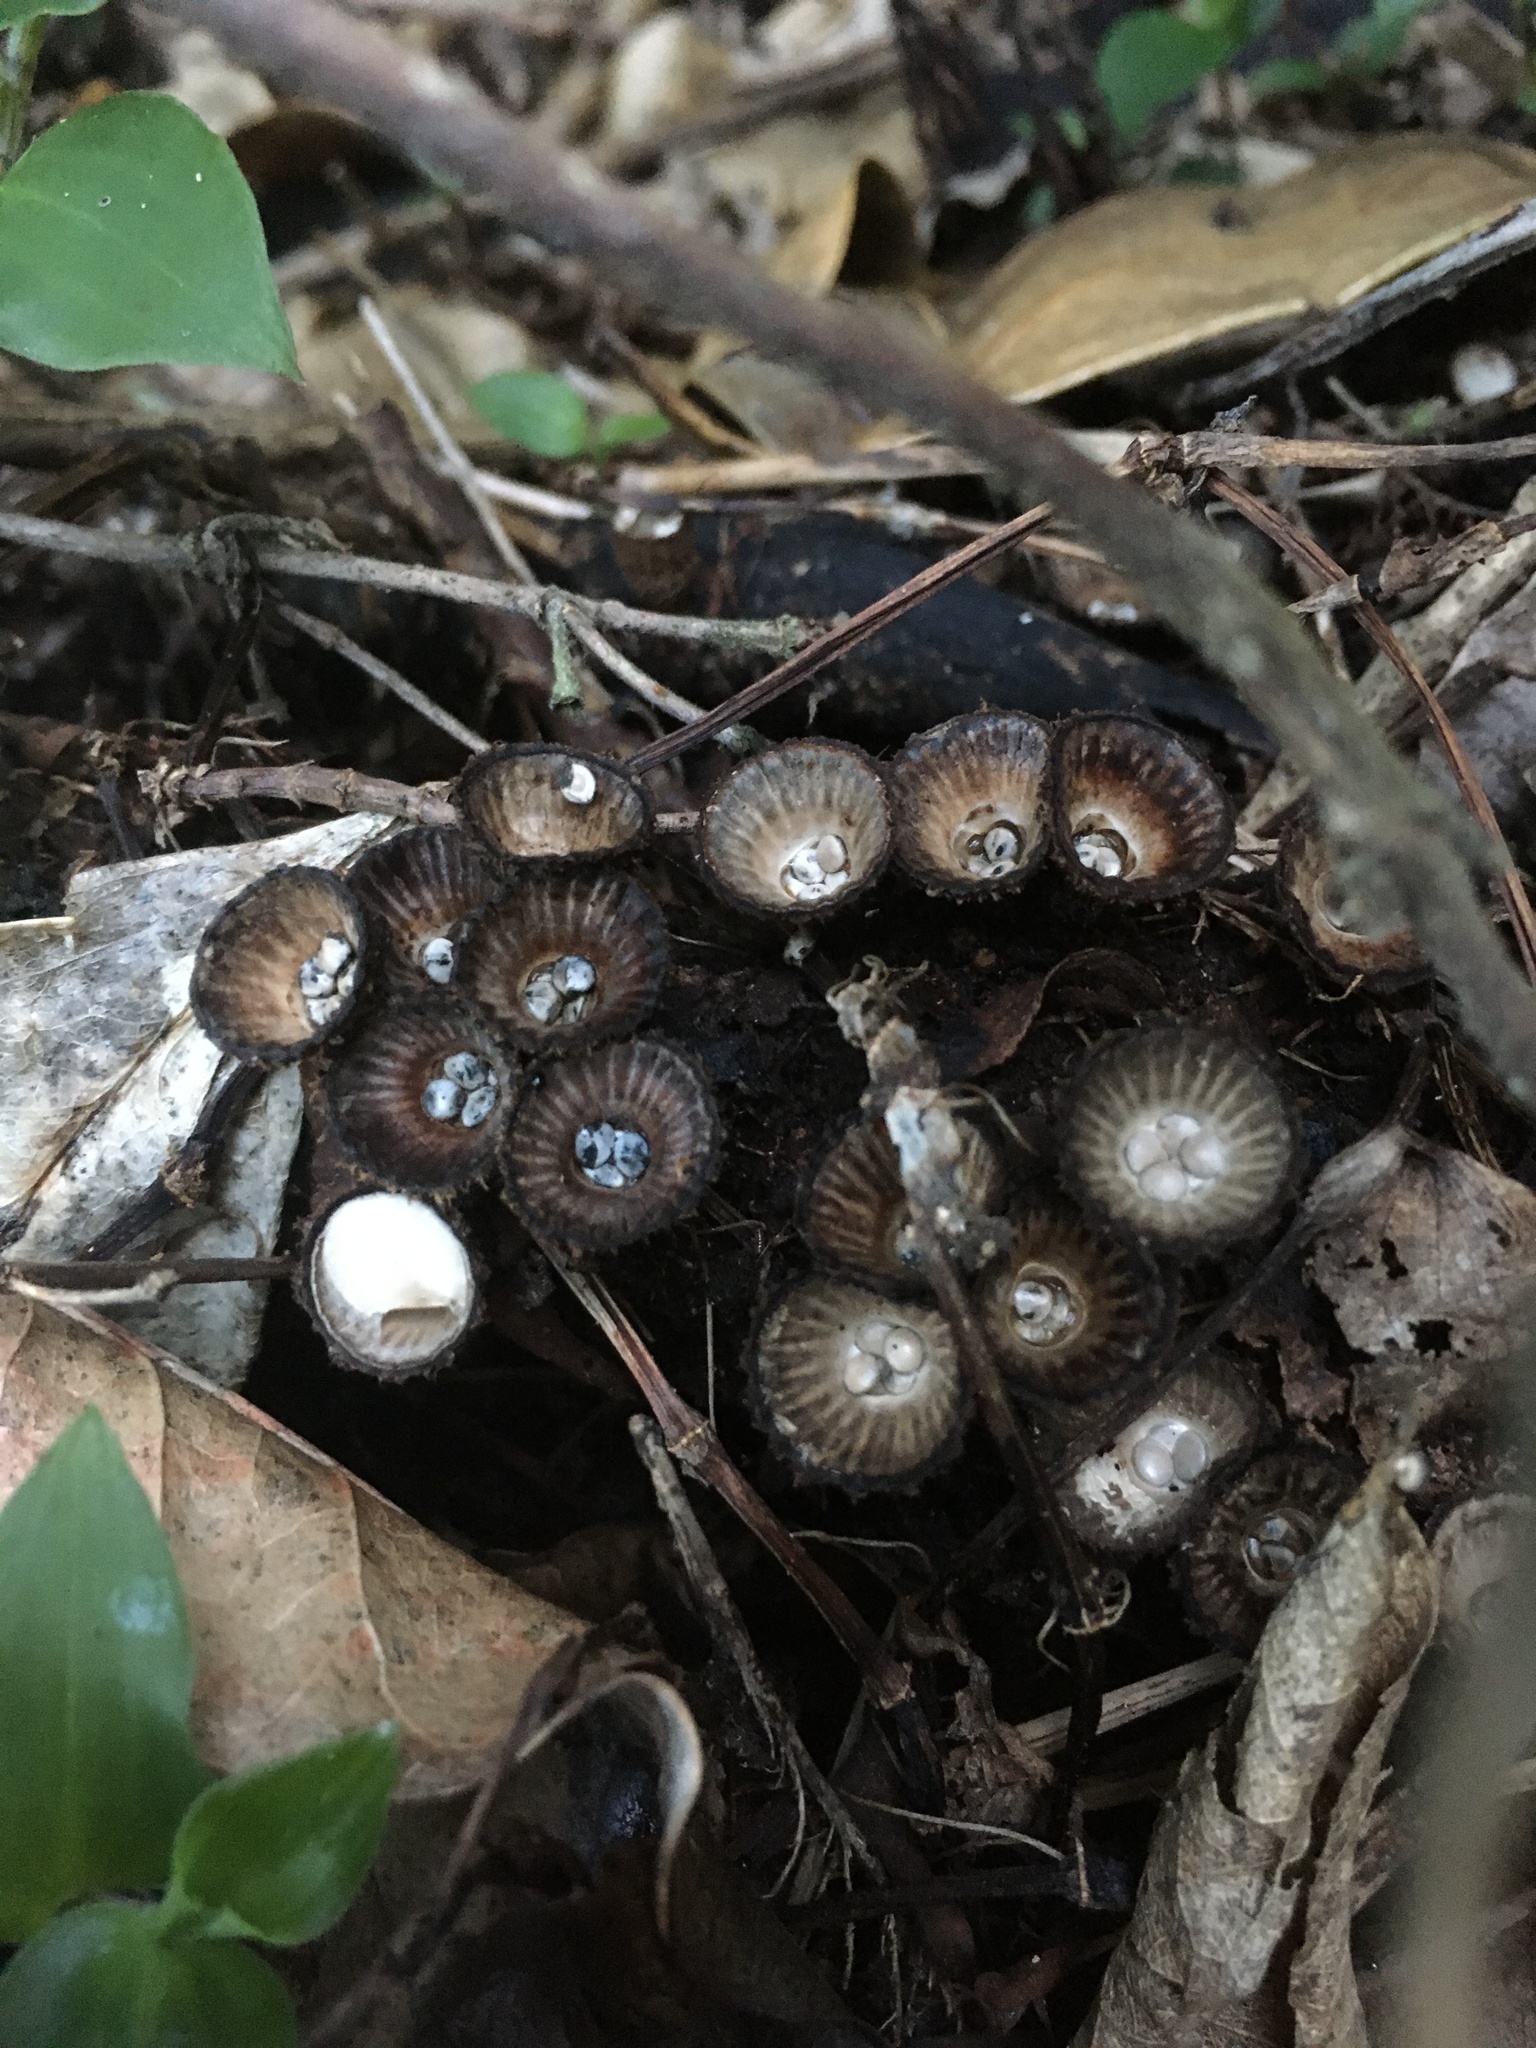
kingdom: Fungi
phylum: Basidiomycota
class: Agaricomycetes
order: Agaricales
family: Agaricaceae
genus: Cyathus
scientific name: Cyathus striatus
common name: Fluted bird's nest
